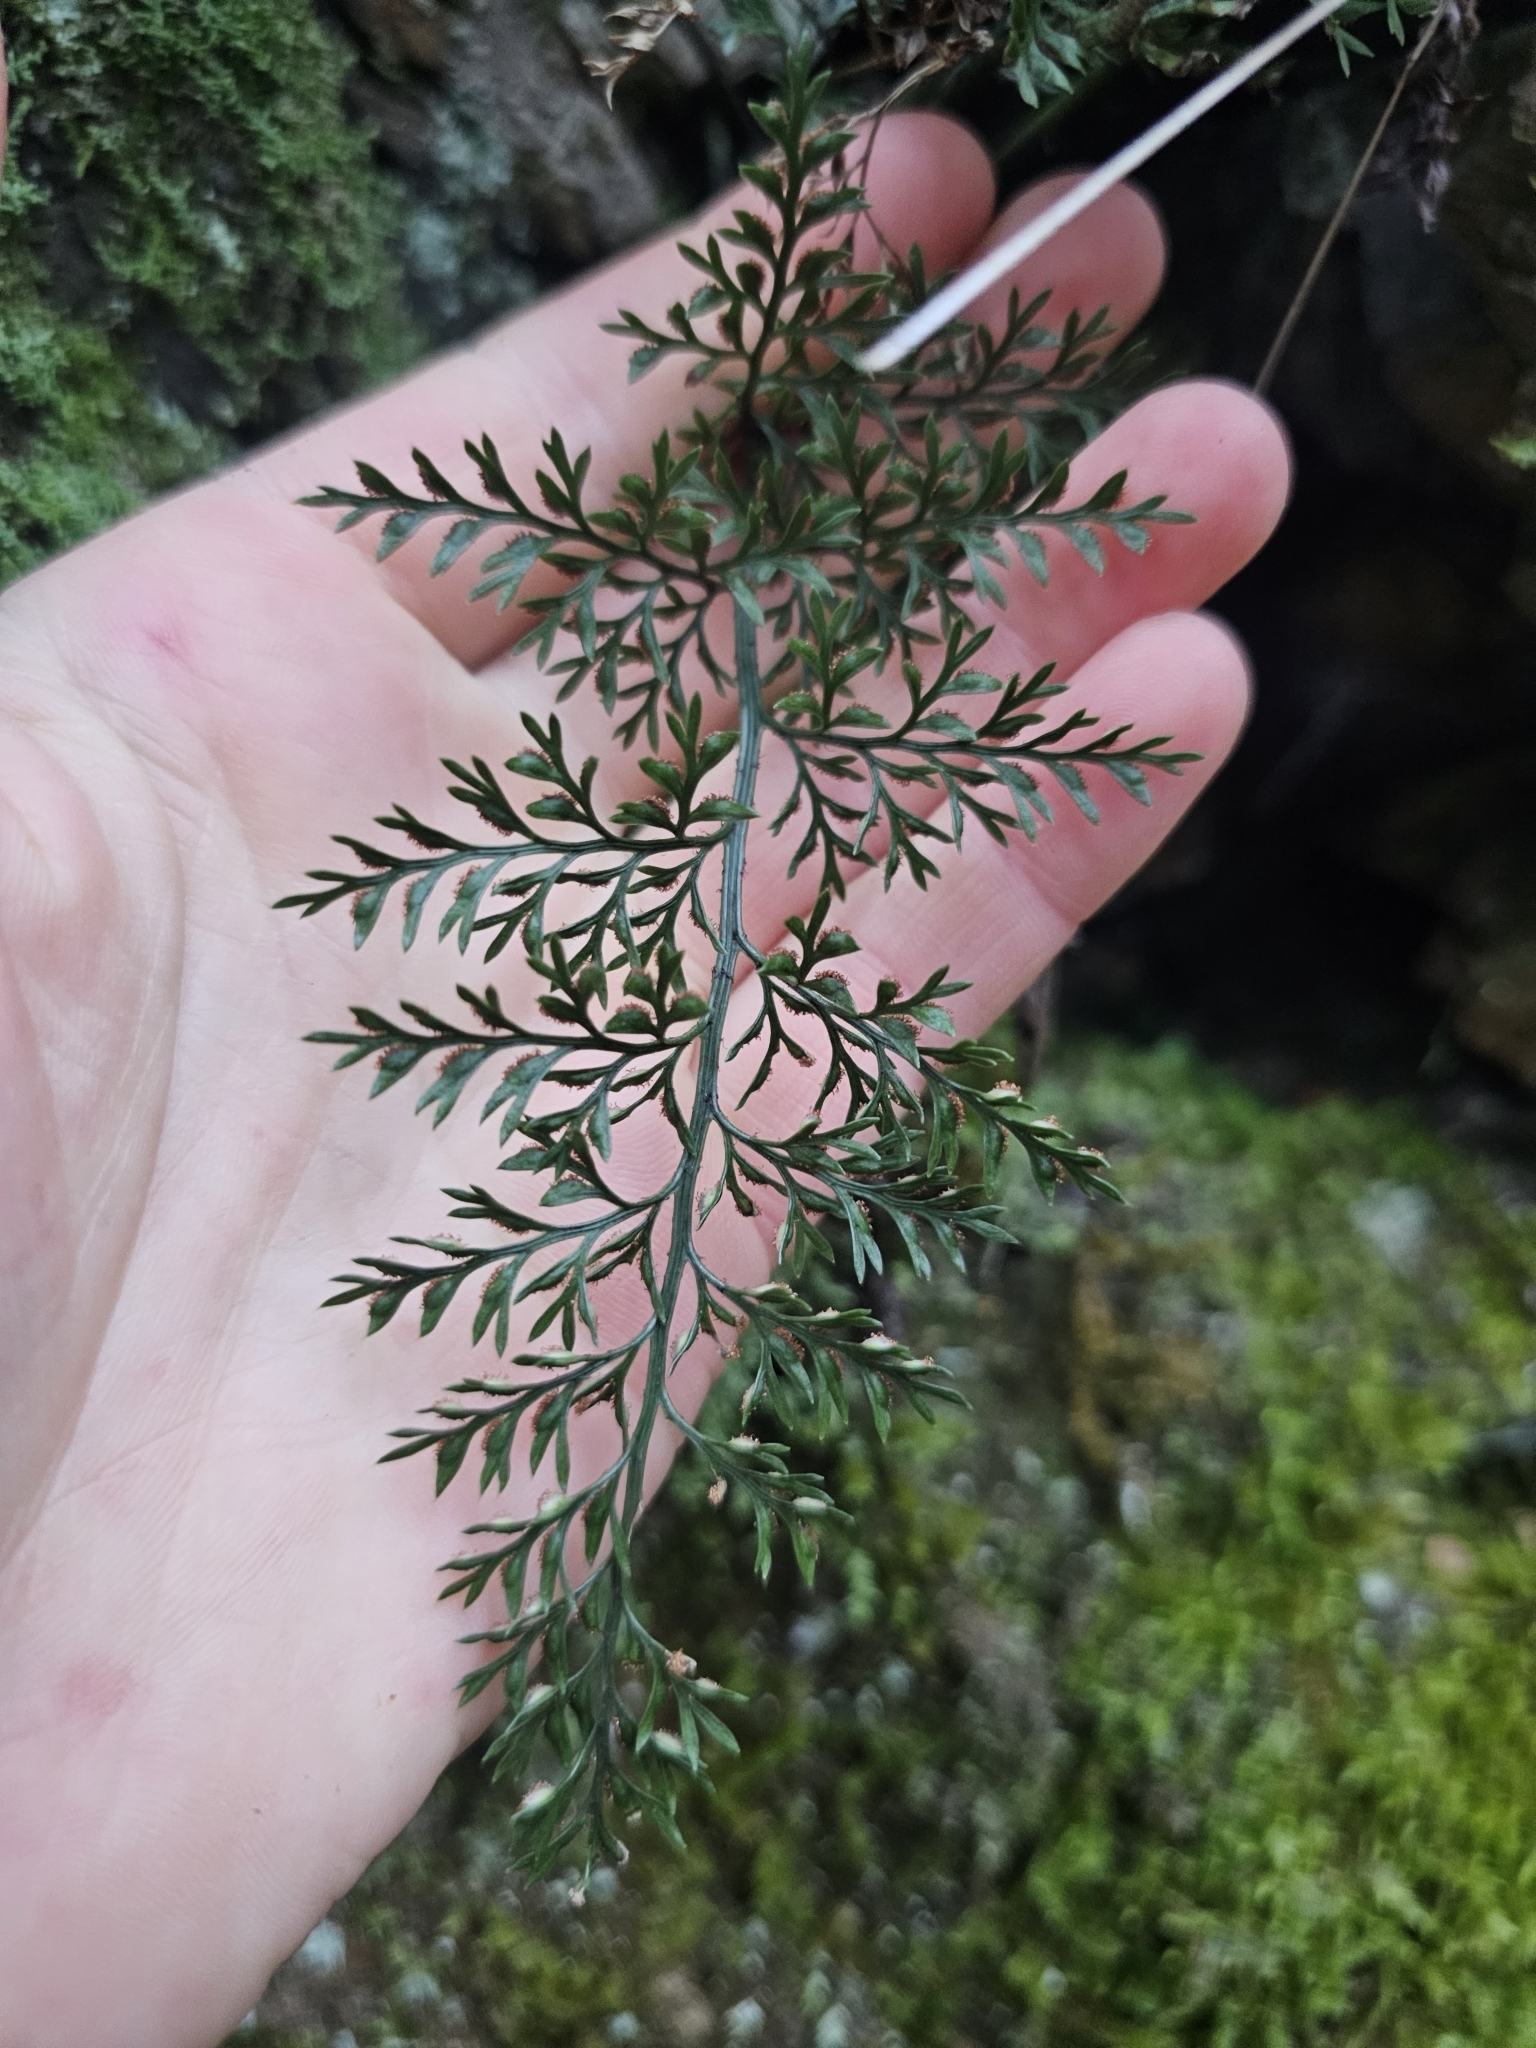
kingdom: Plantae
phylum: Tracheophyta
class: Polypodiopsida
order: Polypodiales
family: Aspleniaceae
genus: Asplenium
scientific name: Asplenium richardii
